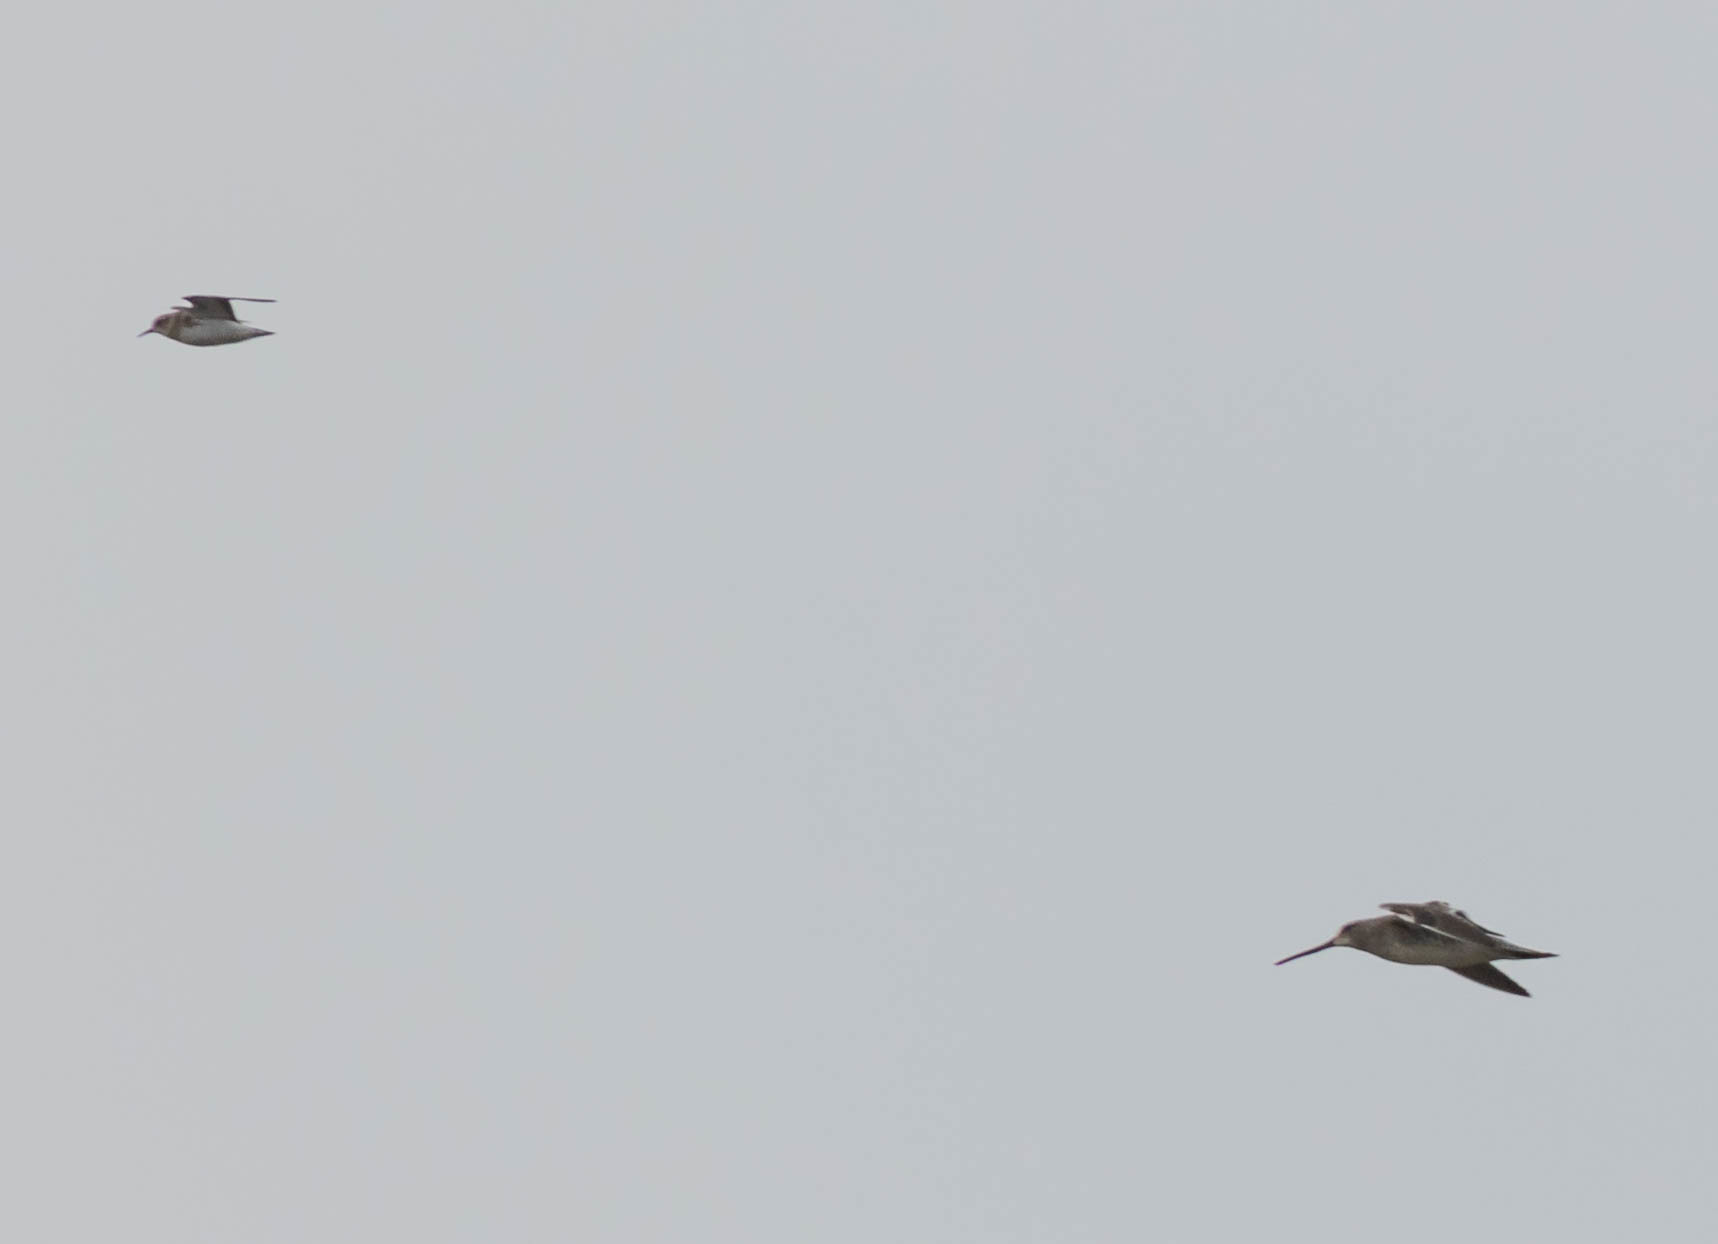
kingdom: Animalia
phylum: Chordata
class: Aves
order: Charadriiformes
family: Scolopacidae
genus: Calidris
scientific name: Calidris minutilla
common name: Least sandpiper
